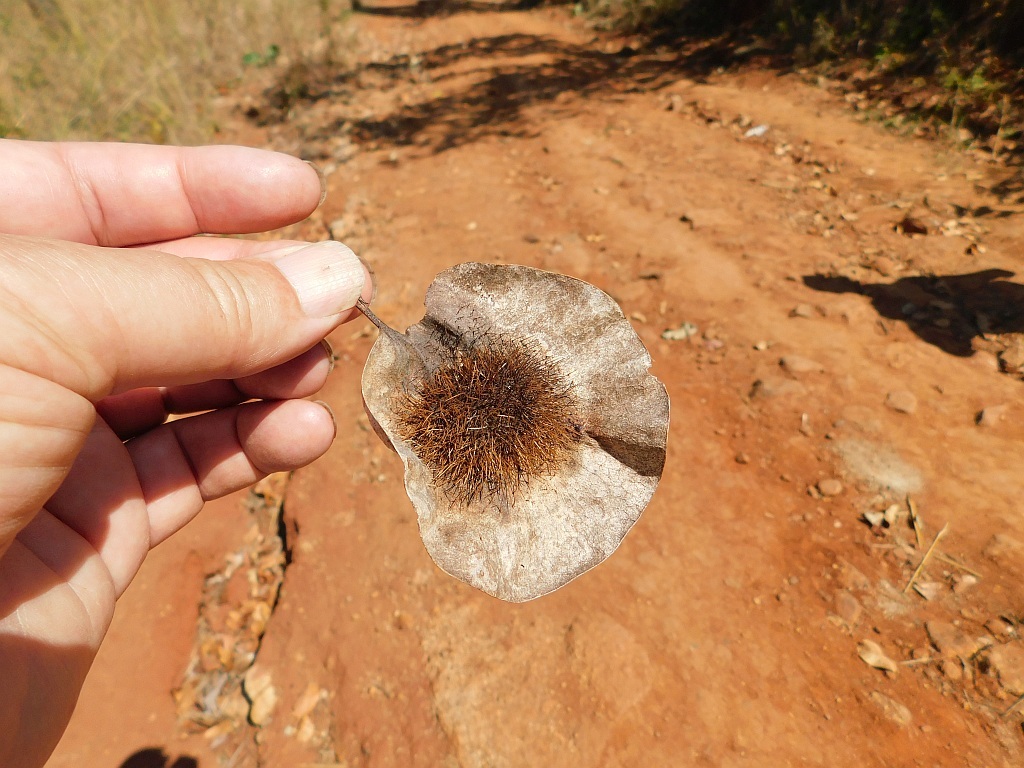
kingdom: Plantae
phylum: Tracheophyta
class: Magnoliopsida
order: Fabales
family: Fabaceae
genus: Pterocarpus
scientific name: Pterocarpus angolensis
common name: Bloodwood tree
